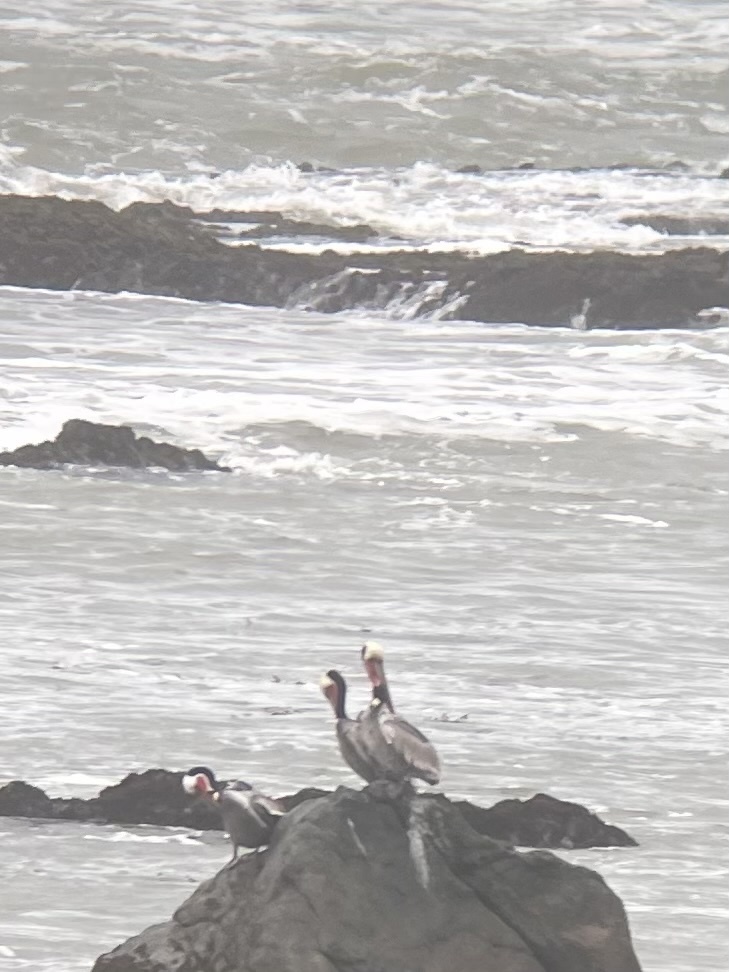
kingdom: Animalia
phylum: Chordata
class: Aves
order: Pelecaniformes
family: Pelecanidae
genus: Pelecanus
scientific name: Pelecanus occidentalis
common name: Brown pelican
